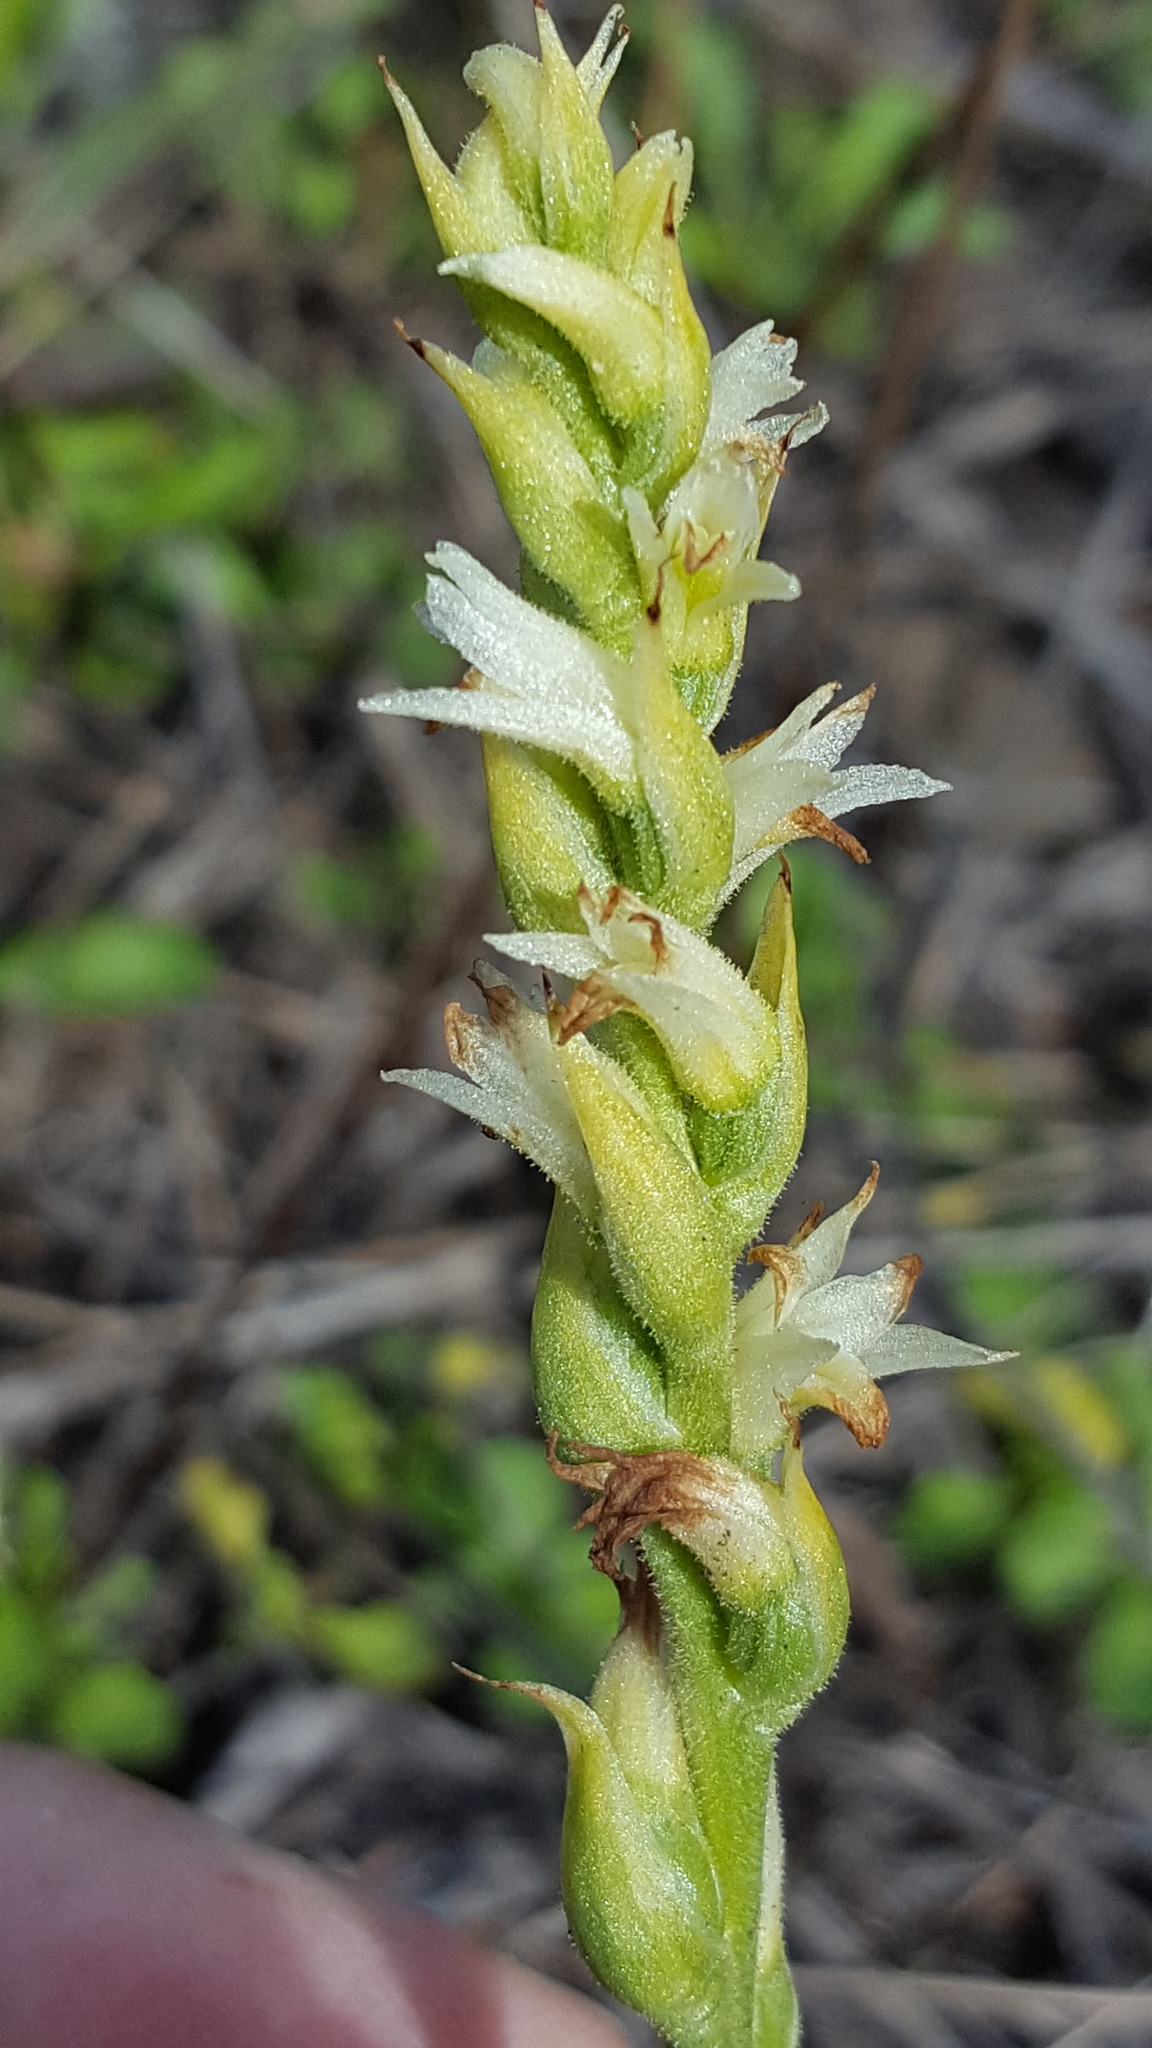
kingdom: Plantae
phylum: Tracheophyta
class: Liliopsida
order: Asparagales
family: Orchidaceae
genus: Spiranthes
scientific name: Spiranthes romanzoffiana
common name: Irish lady's-tresses
